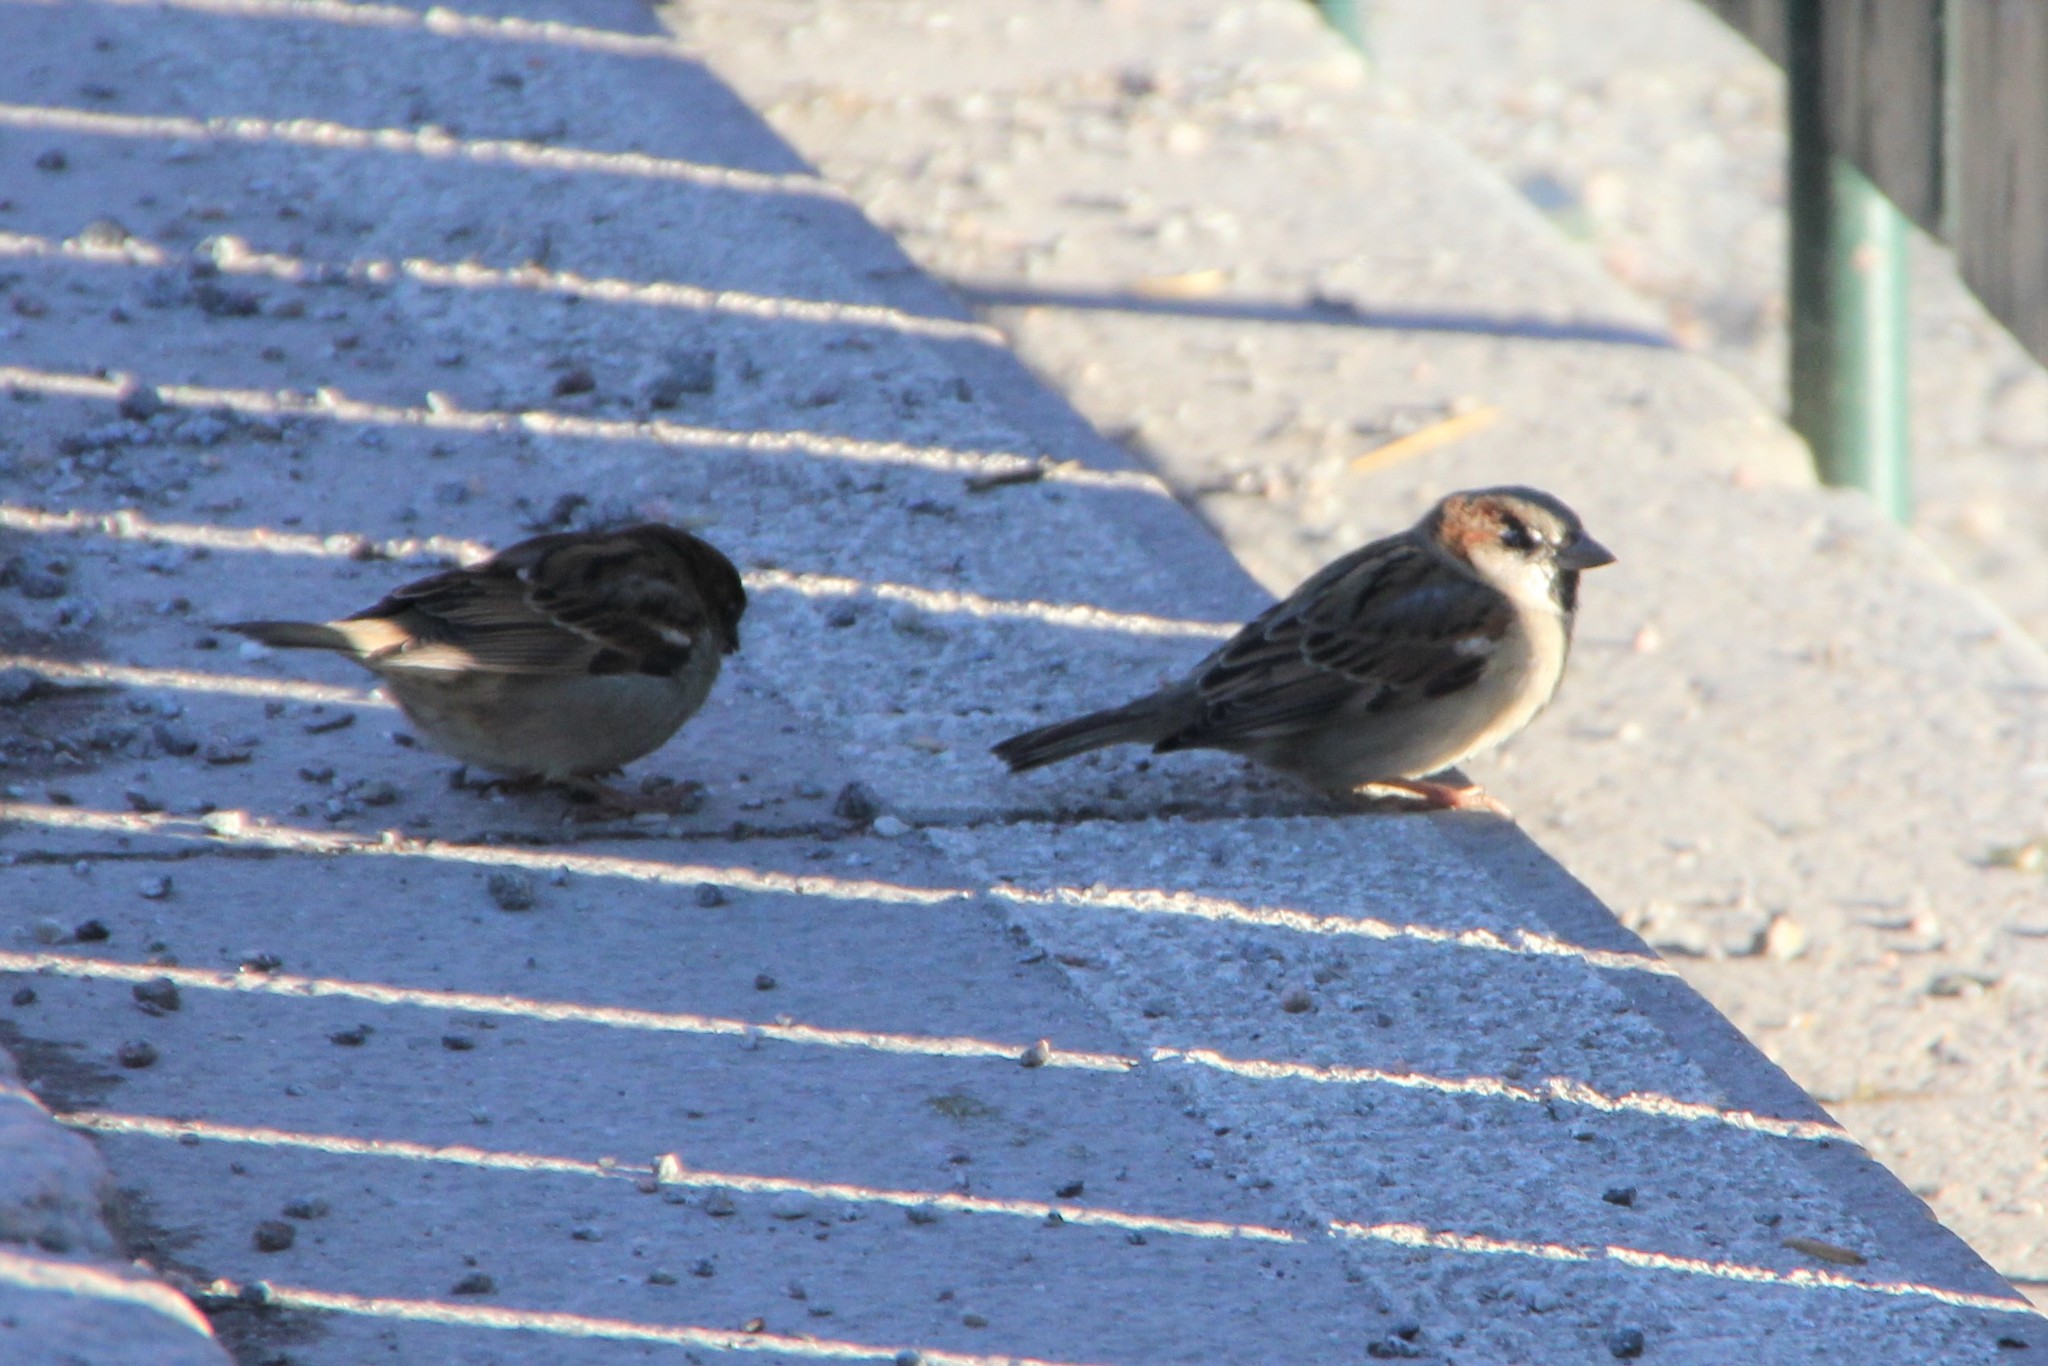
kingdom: Animalia
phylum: Chordata
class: Aves
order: Passeriformes
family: Passeridae
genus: Passer
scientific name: Passer domesticus
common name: House sparrow
